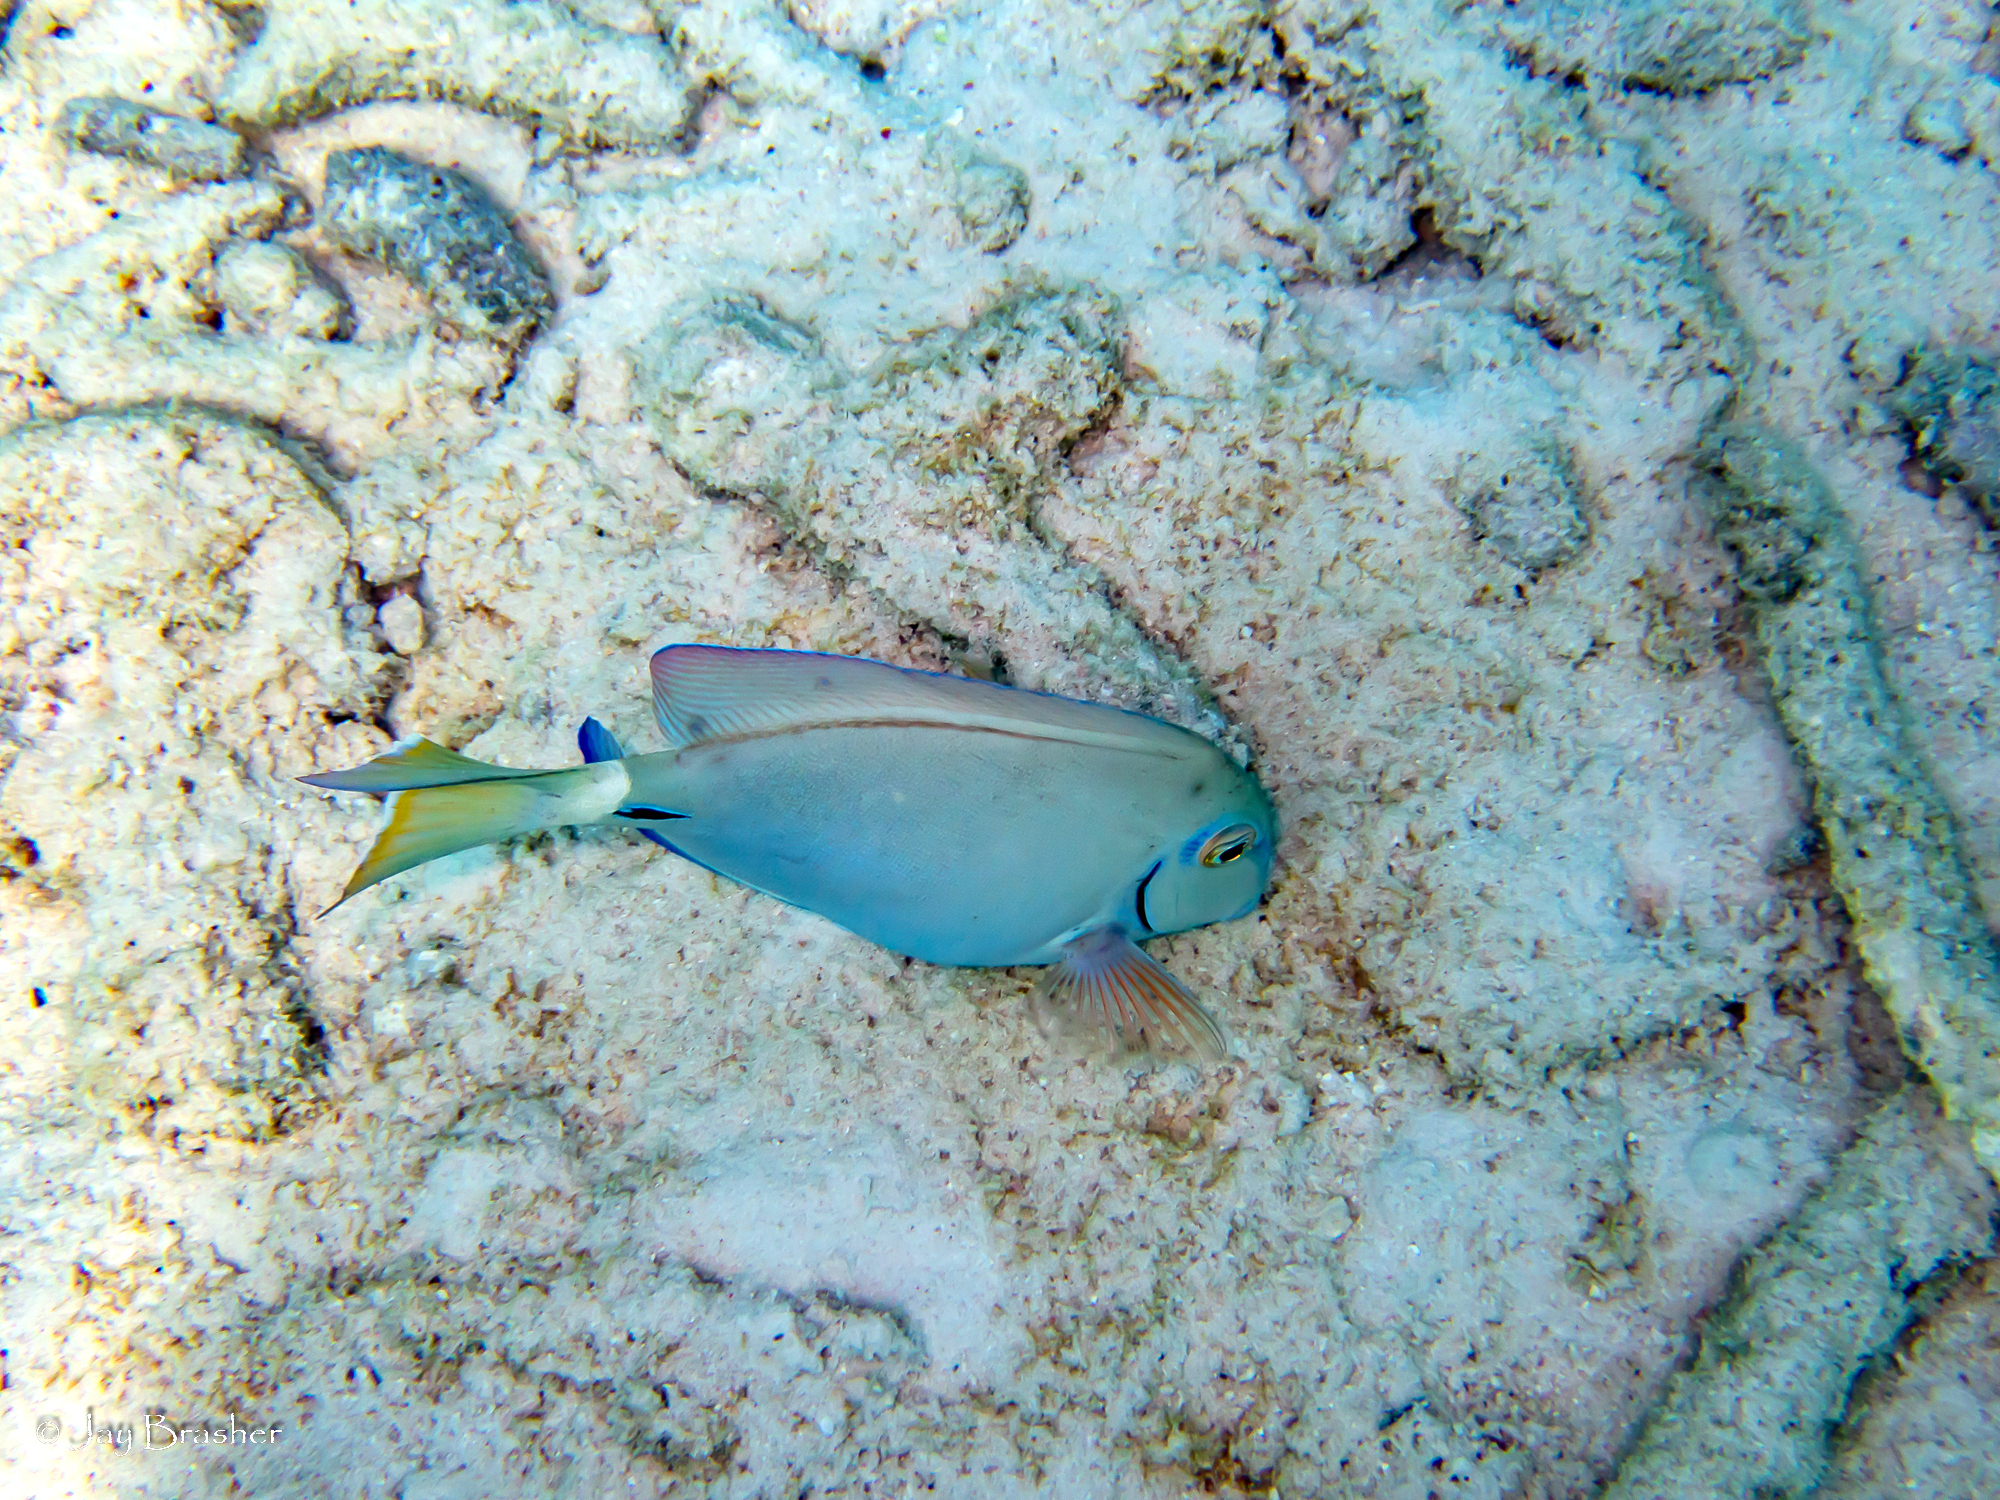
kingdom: Animalia
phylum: Chordata
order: Perciformes
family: Acanthuridae
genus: Acanthurus
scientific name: Acanthurus bahianus
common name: Ocean surgeon
